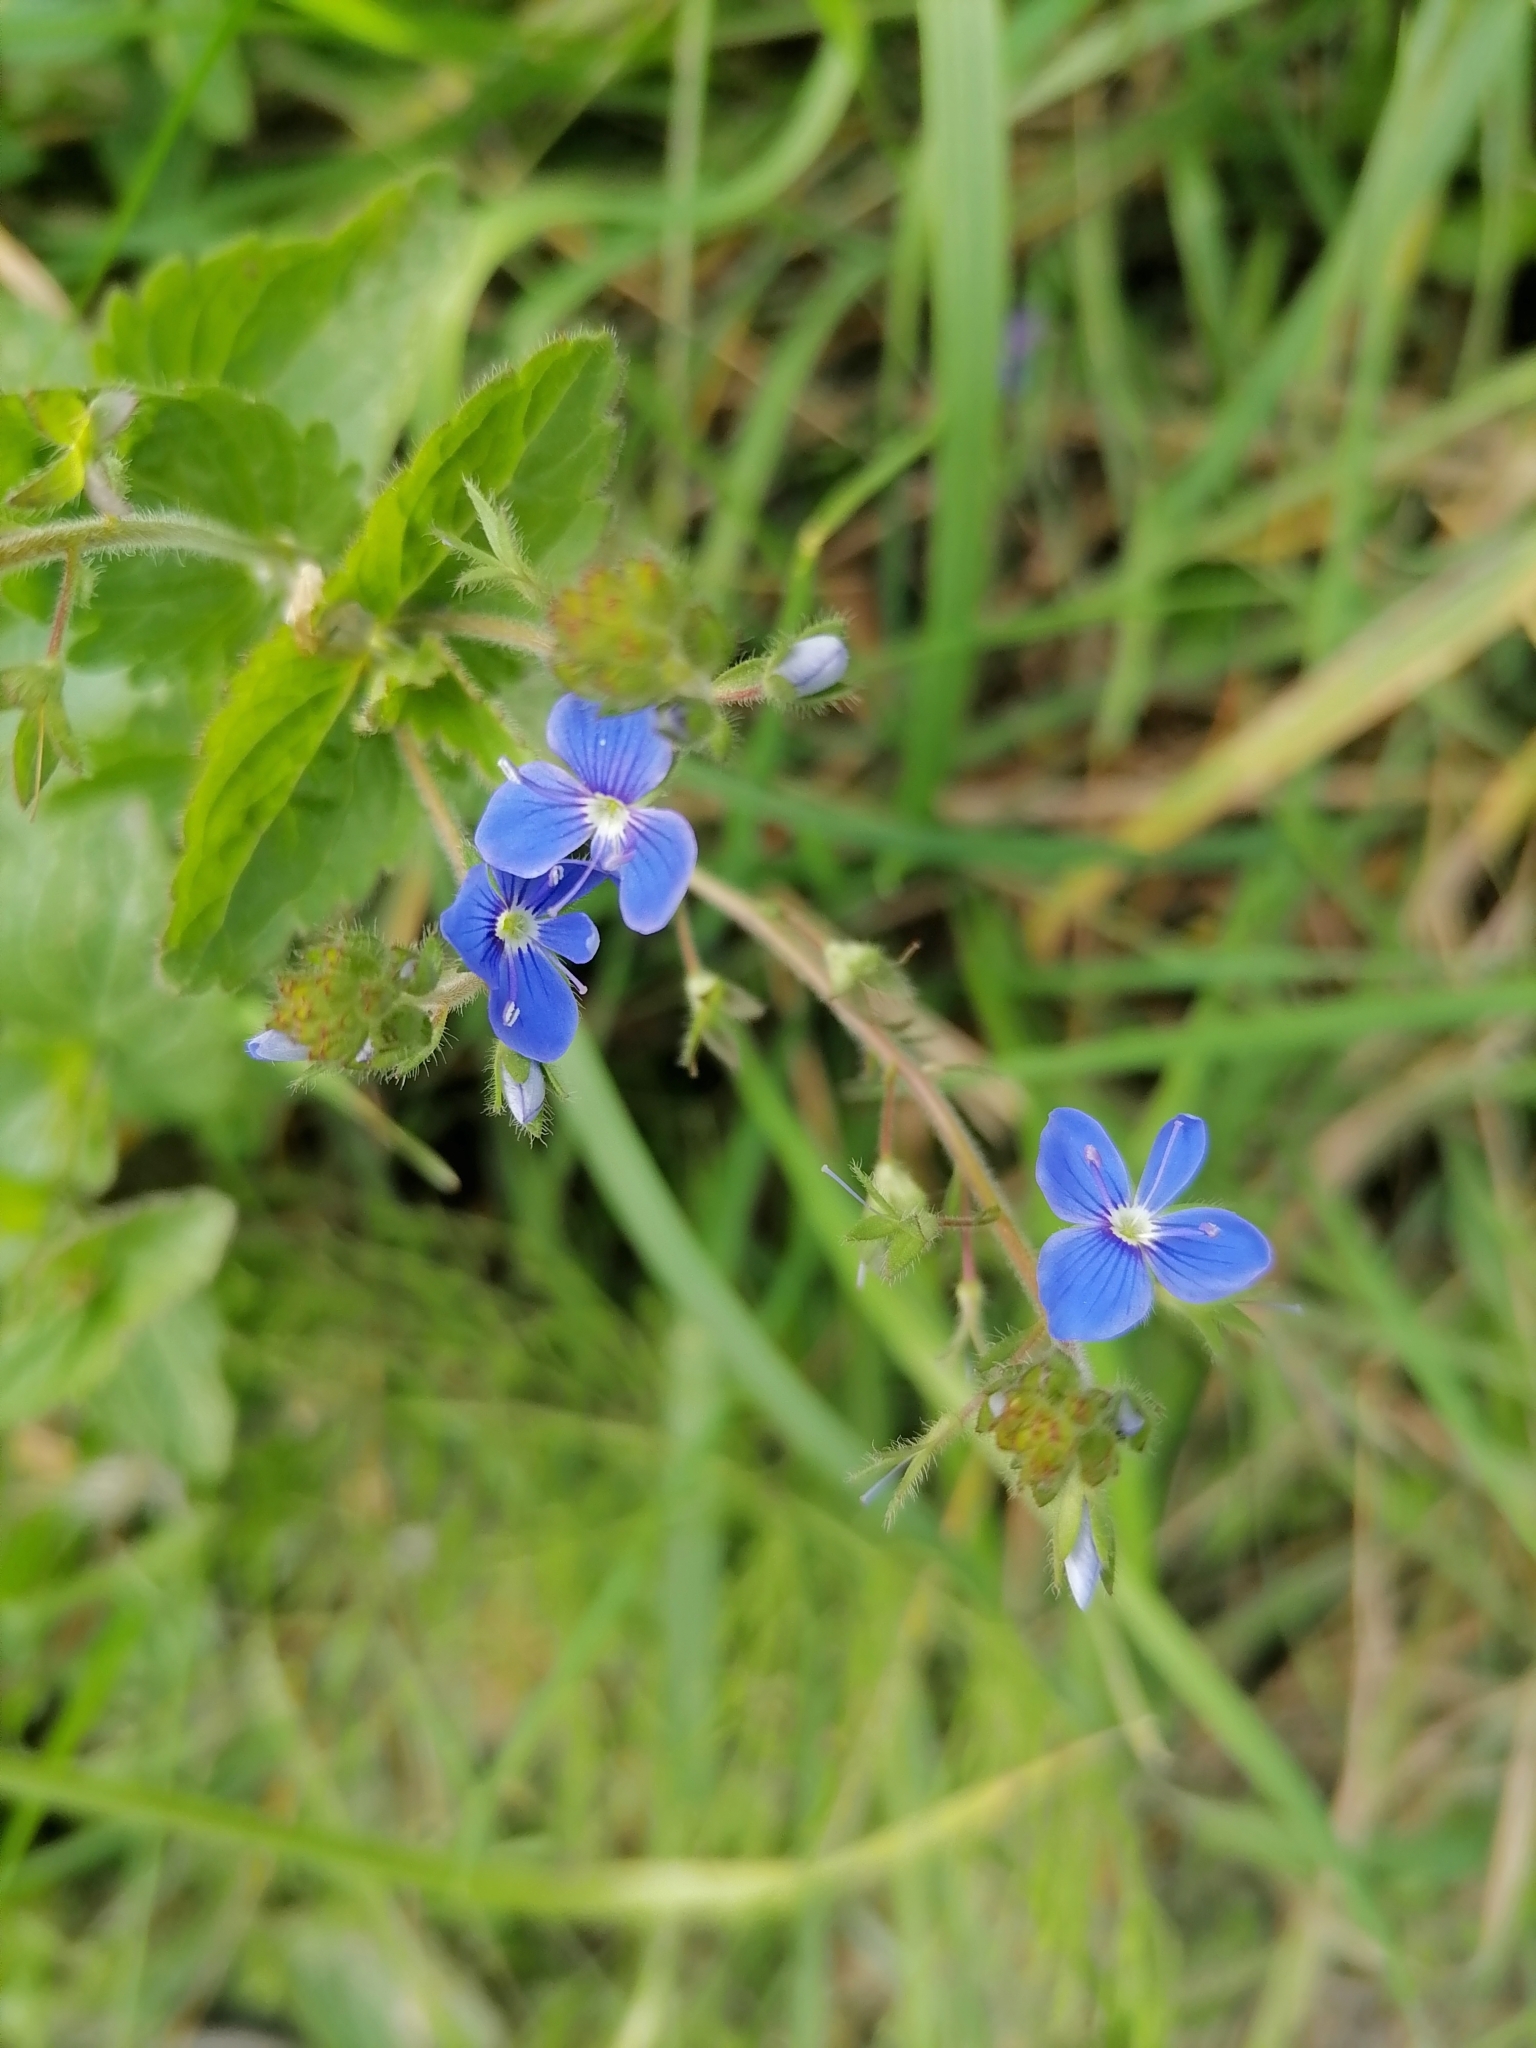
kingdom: Plantae
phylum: Tracheophyta
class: Magnoliopsida
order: Lamiales
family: Plantaginaceae
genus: Veronica
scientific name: Veronica chamaedrys
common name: Germander speedwell
